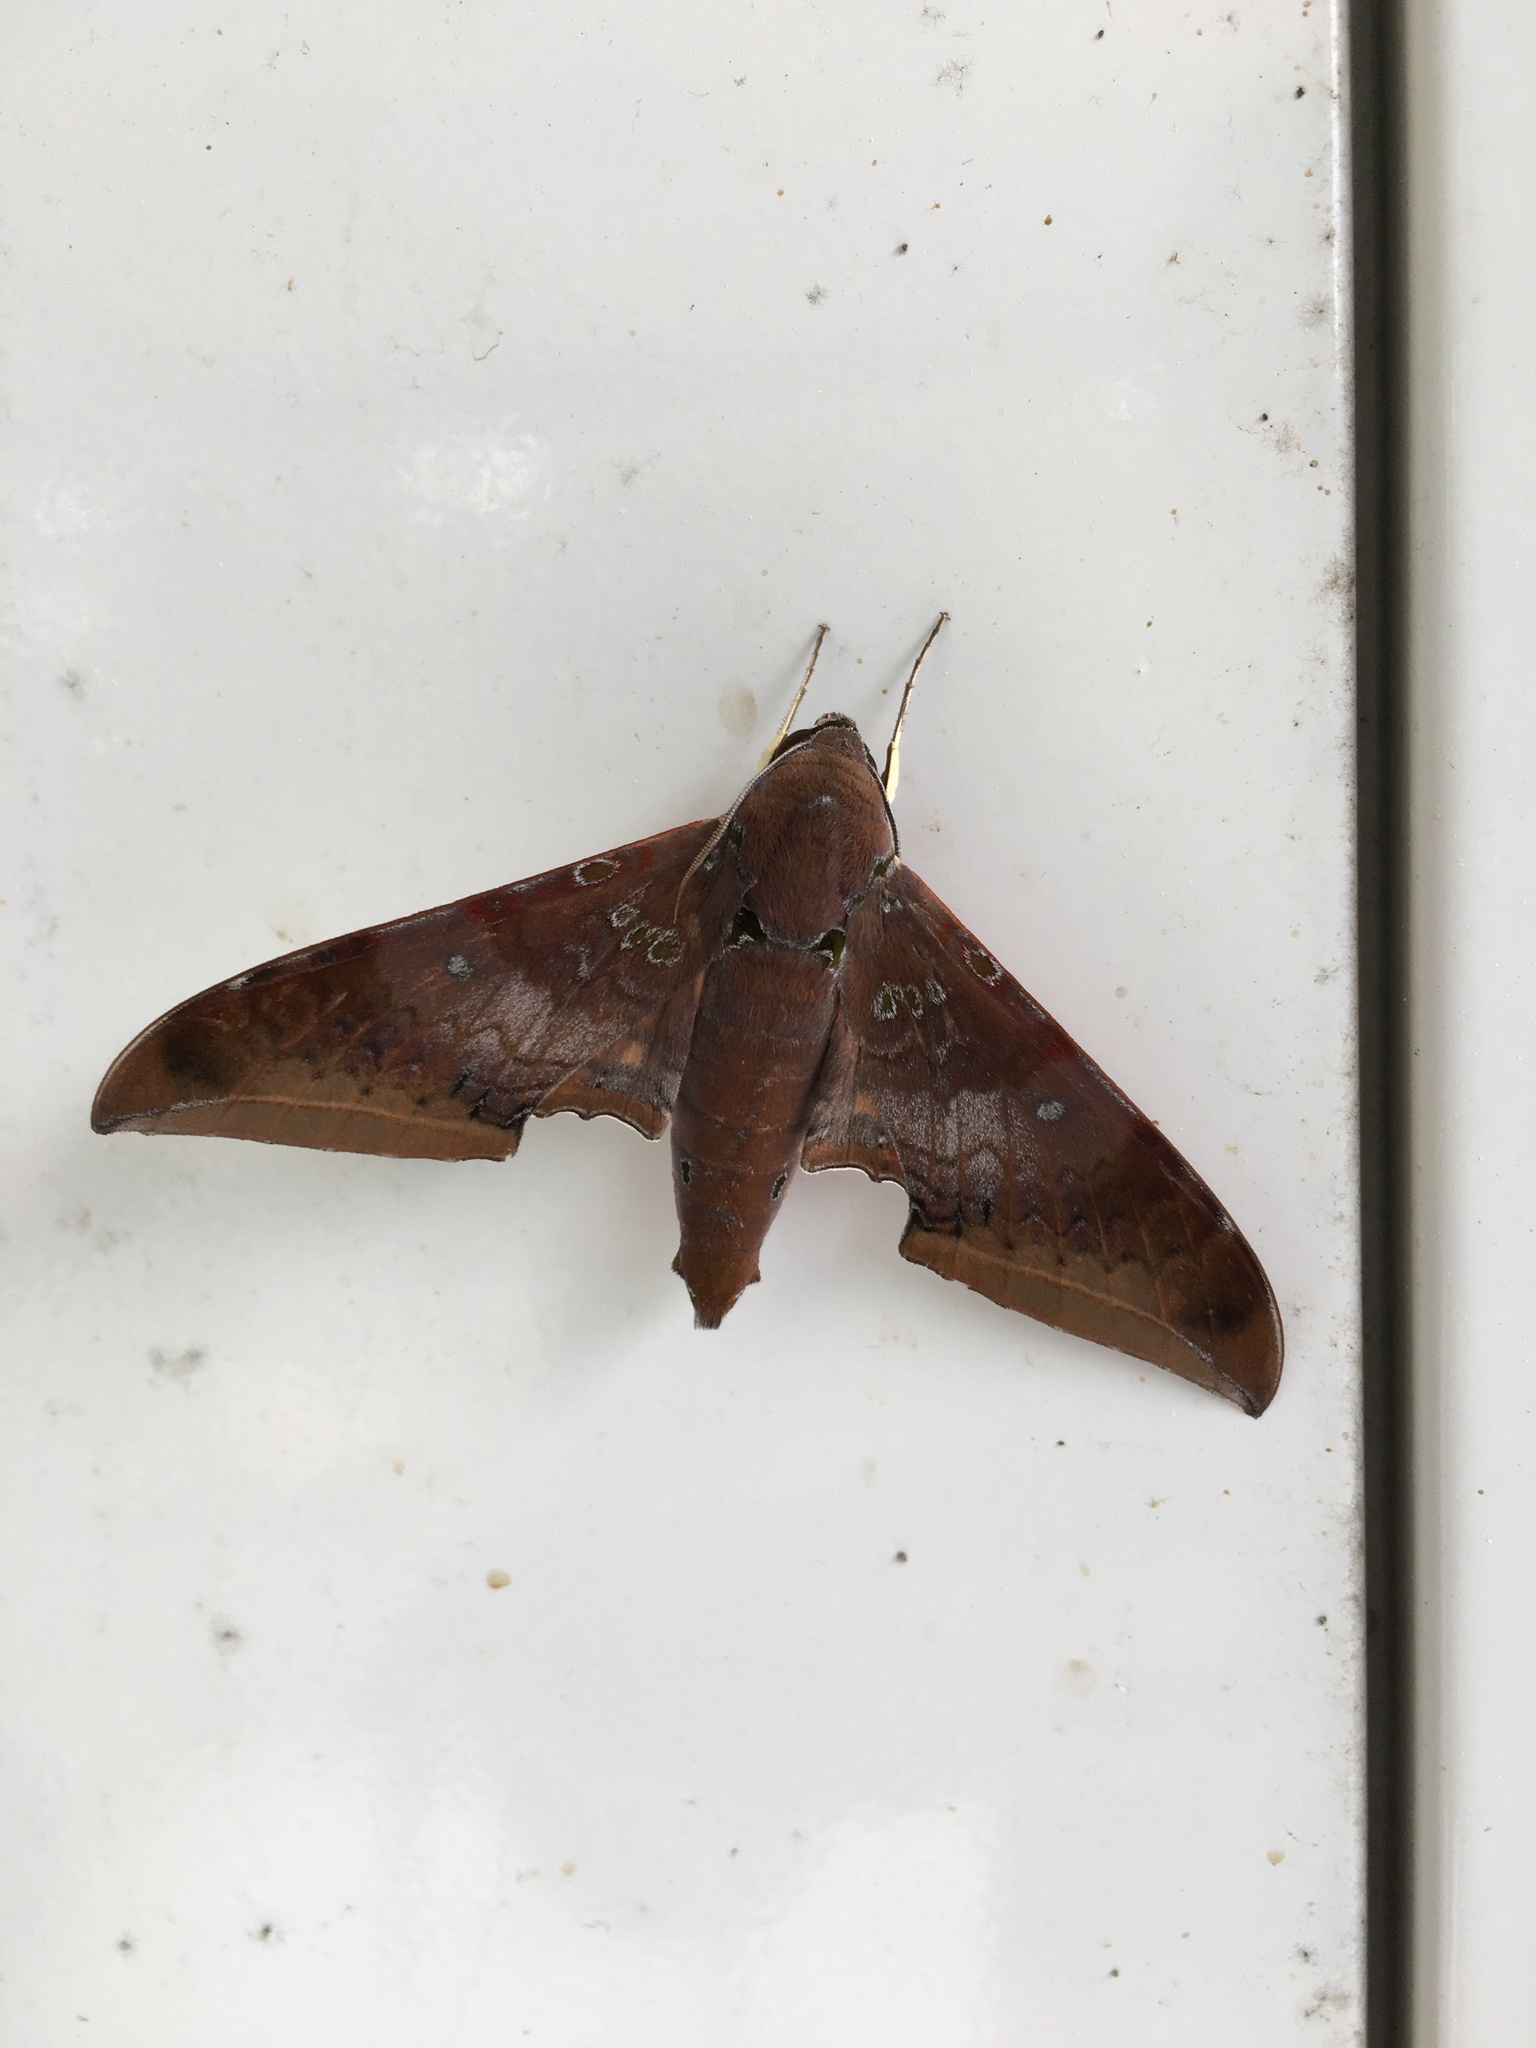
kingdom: Animalia
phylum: Arthropoda
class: Insecta
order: Lepidoptera
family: Sphingidae
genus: Ambulyx
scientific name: Ambulyx moorei
